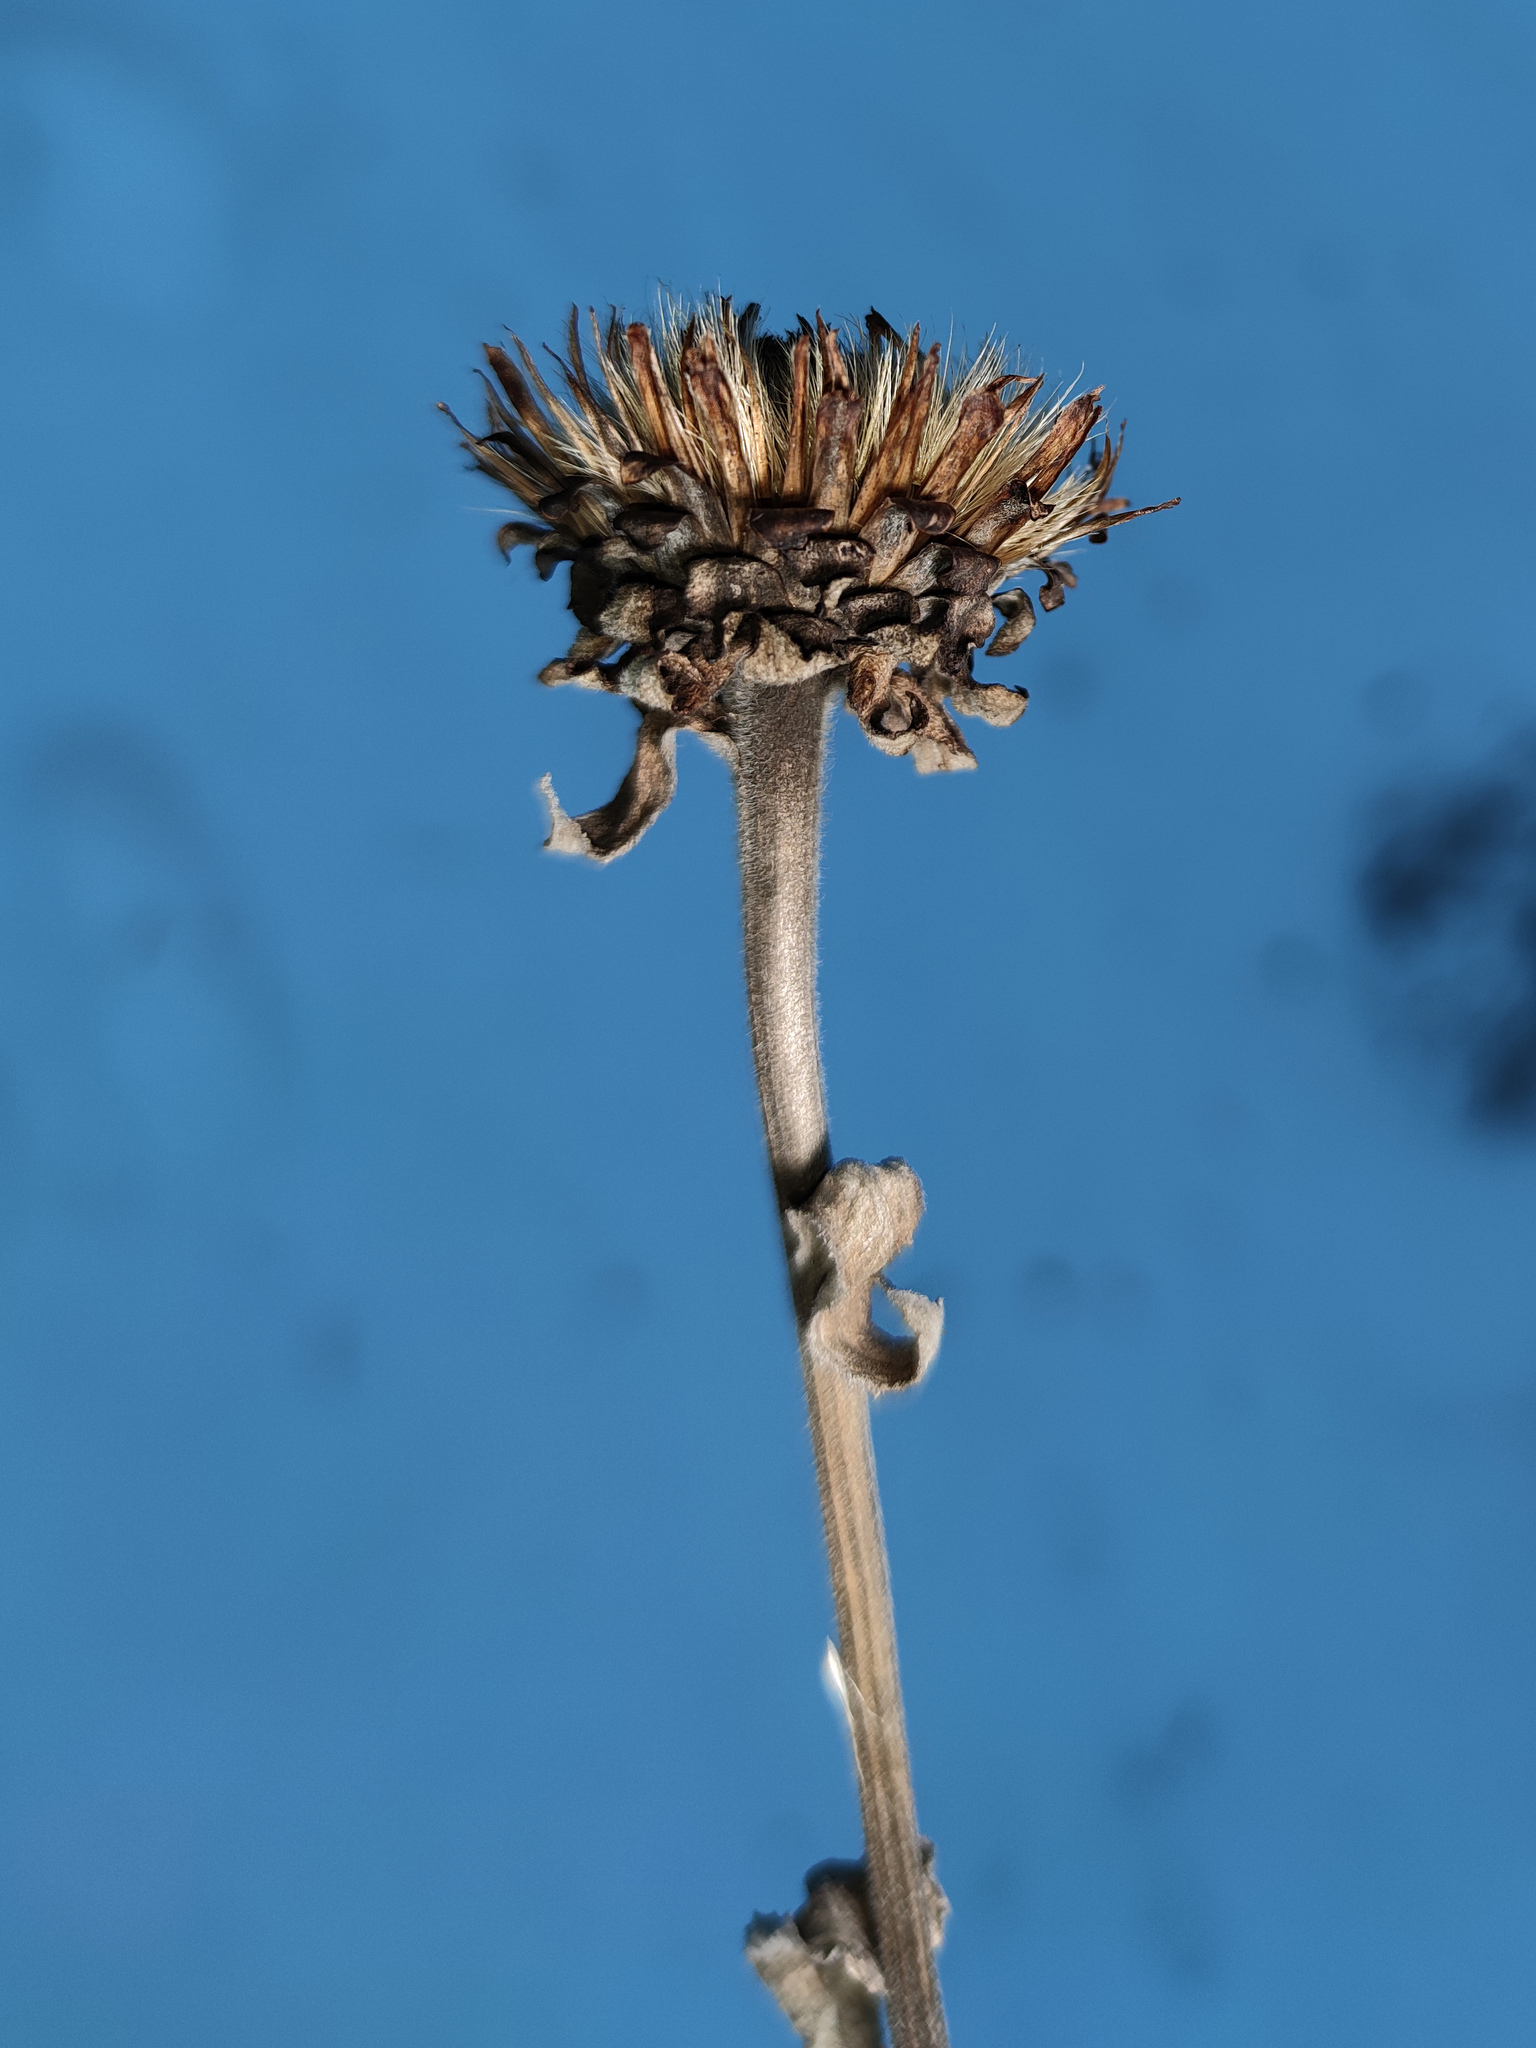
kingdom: Plantae
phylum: Tracheophyta
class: Magnoliopsida
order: Asterales
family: Asteraceae
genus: Inula
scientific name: Inula helenium
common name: Elecampane
